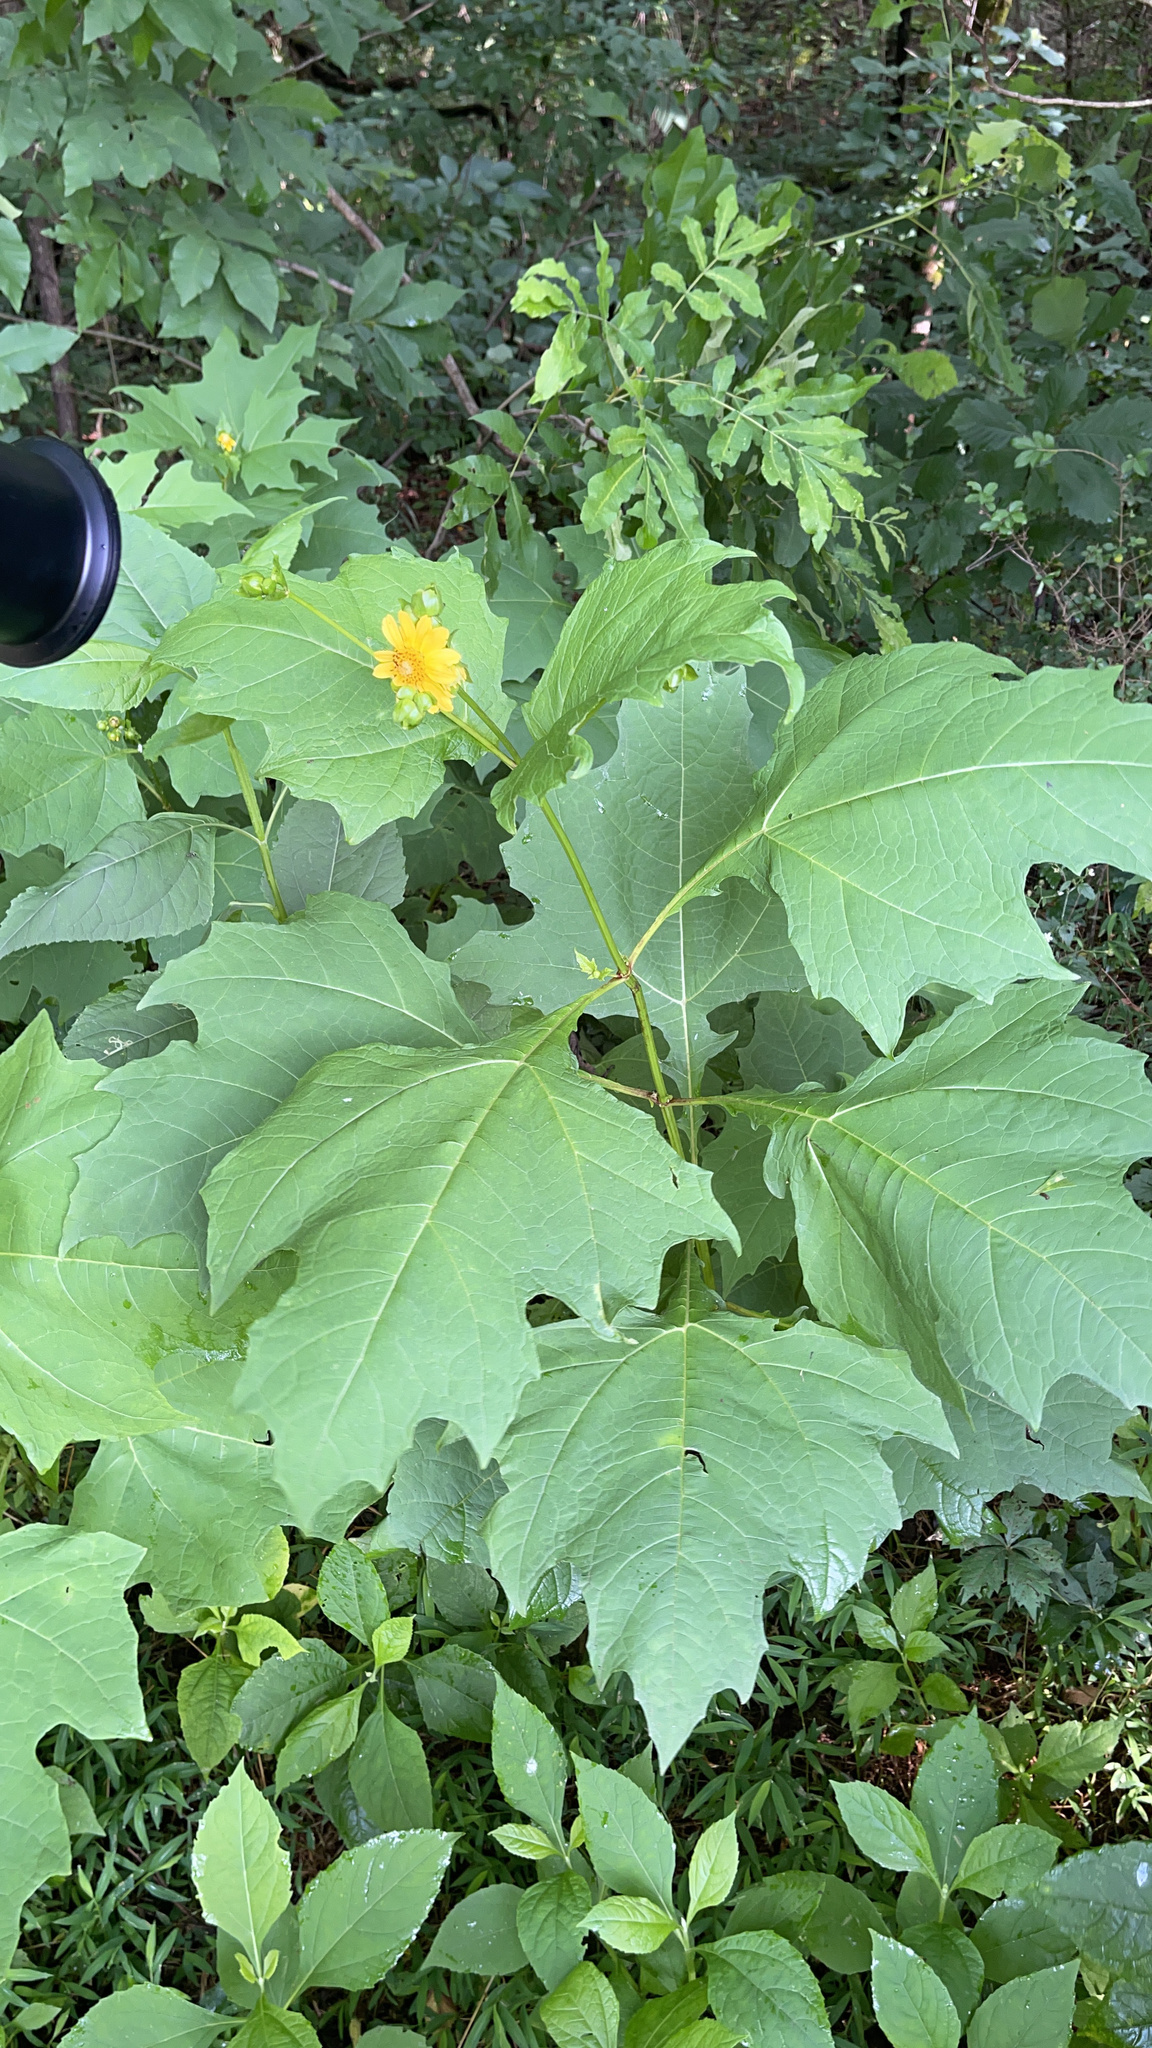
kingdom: Plantae
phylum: Tracheophyta
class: Magnoliopsida
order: Asterales
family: Asteraceae
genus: Smallanthus
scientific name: Smallanthus uvedalia
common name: Bear's-foot
